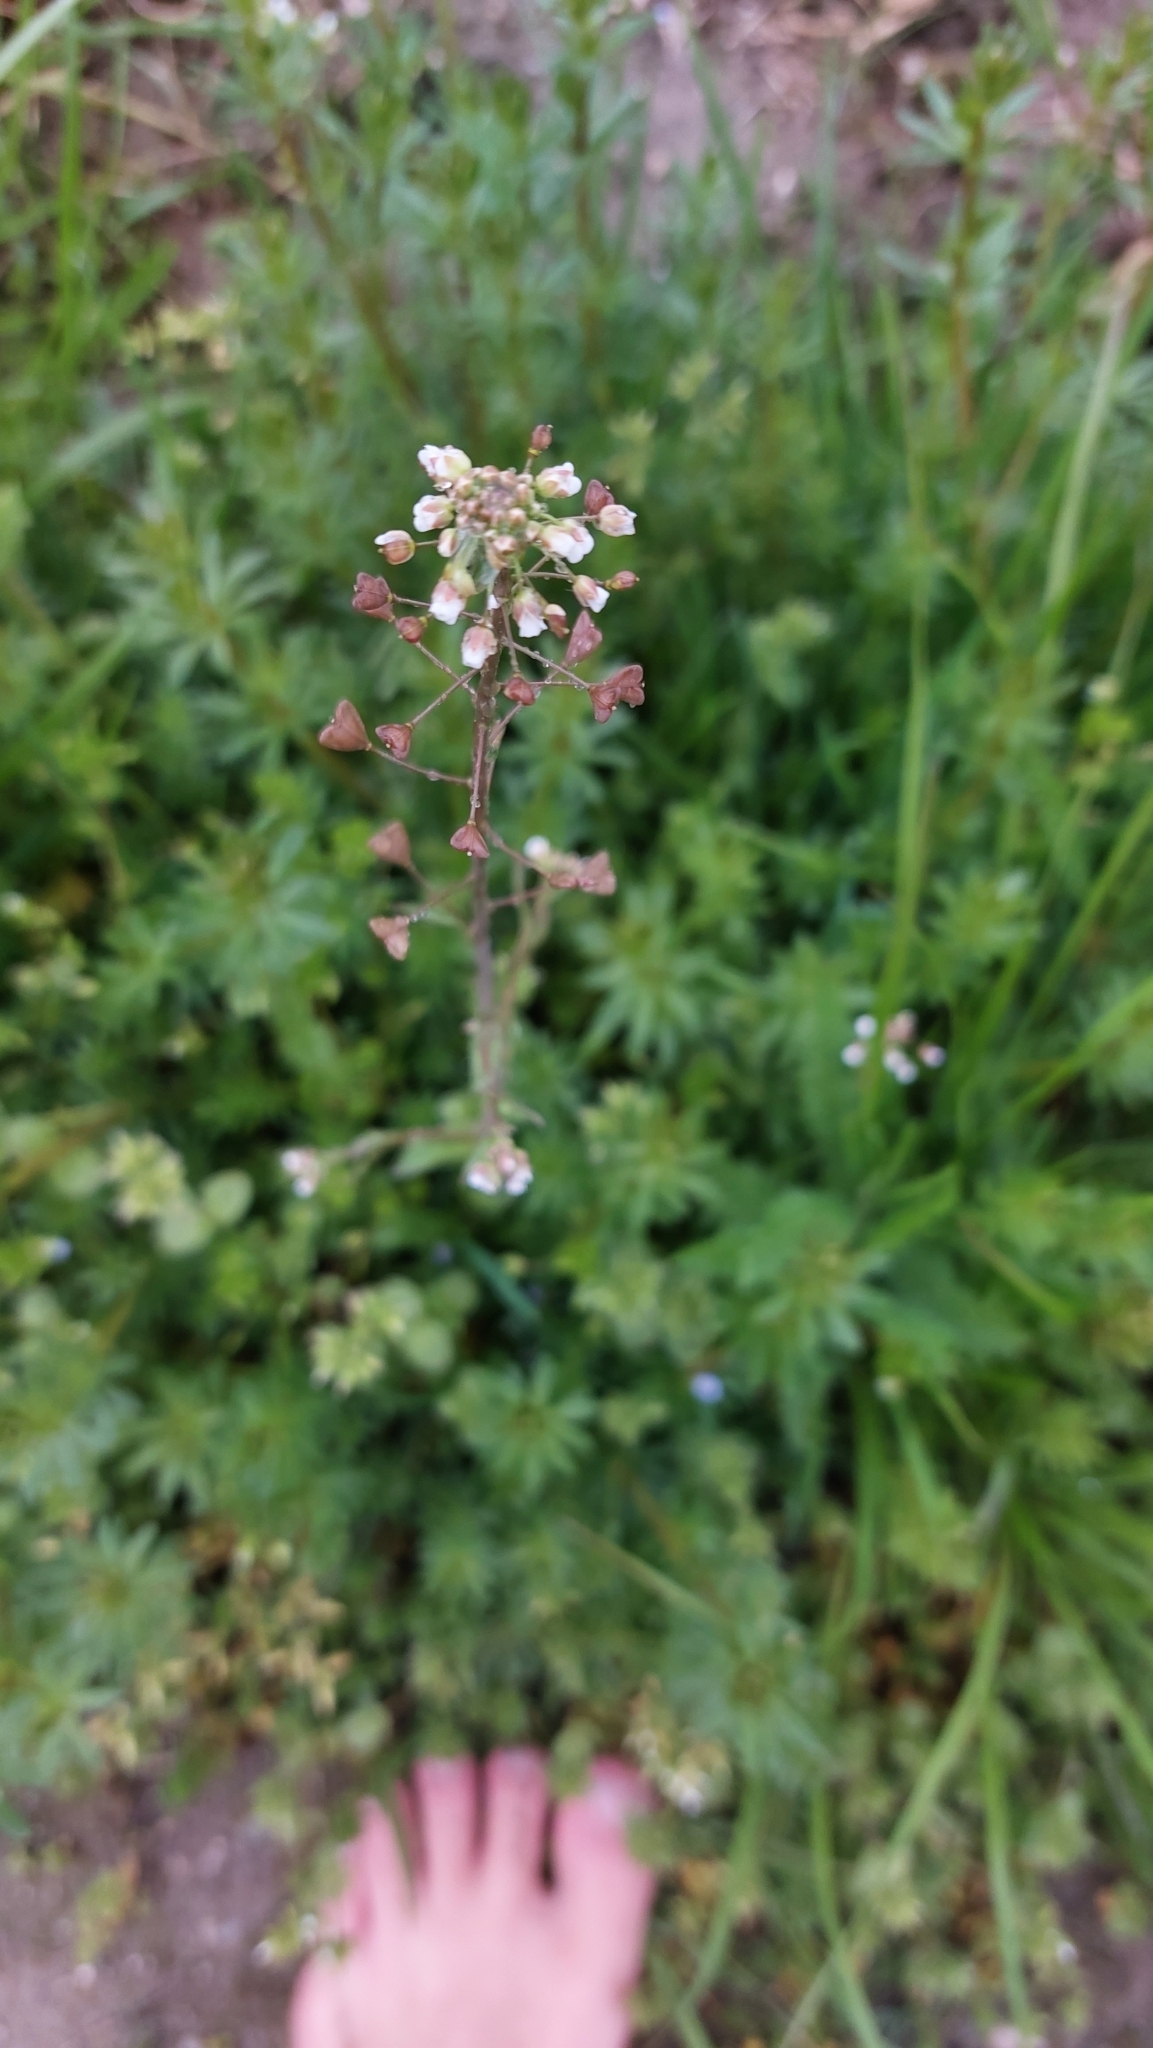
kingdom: Plantae
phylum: Tracheophyta
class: Magnoliopsida
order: Brassicales
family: Brassicaceae
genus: Capsella
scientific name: Capsella bursa-pastoris
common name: Shepherd's purse
